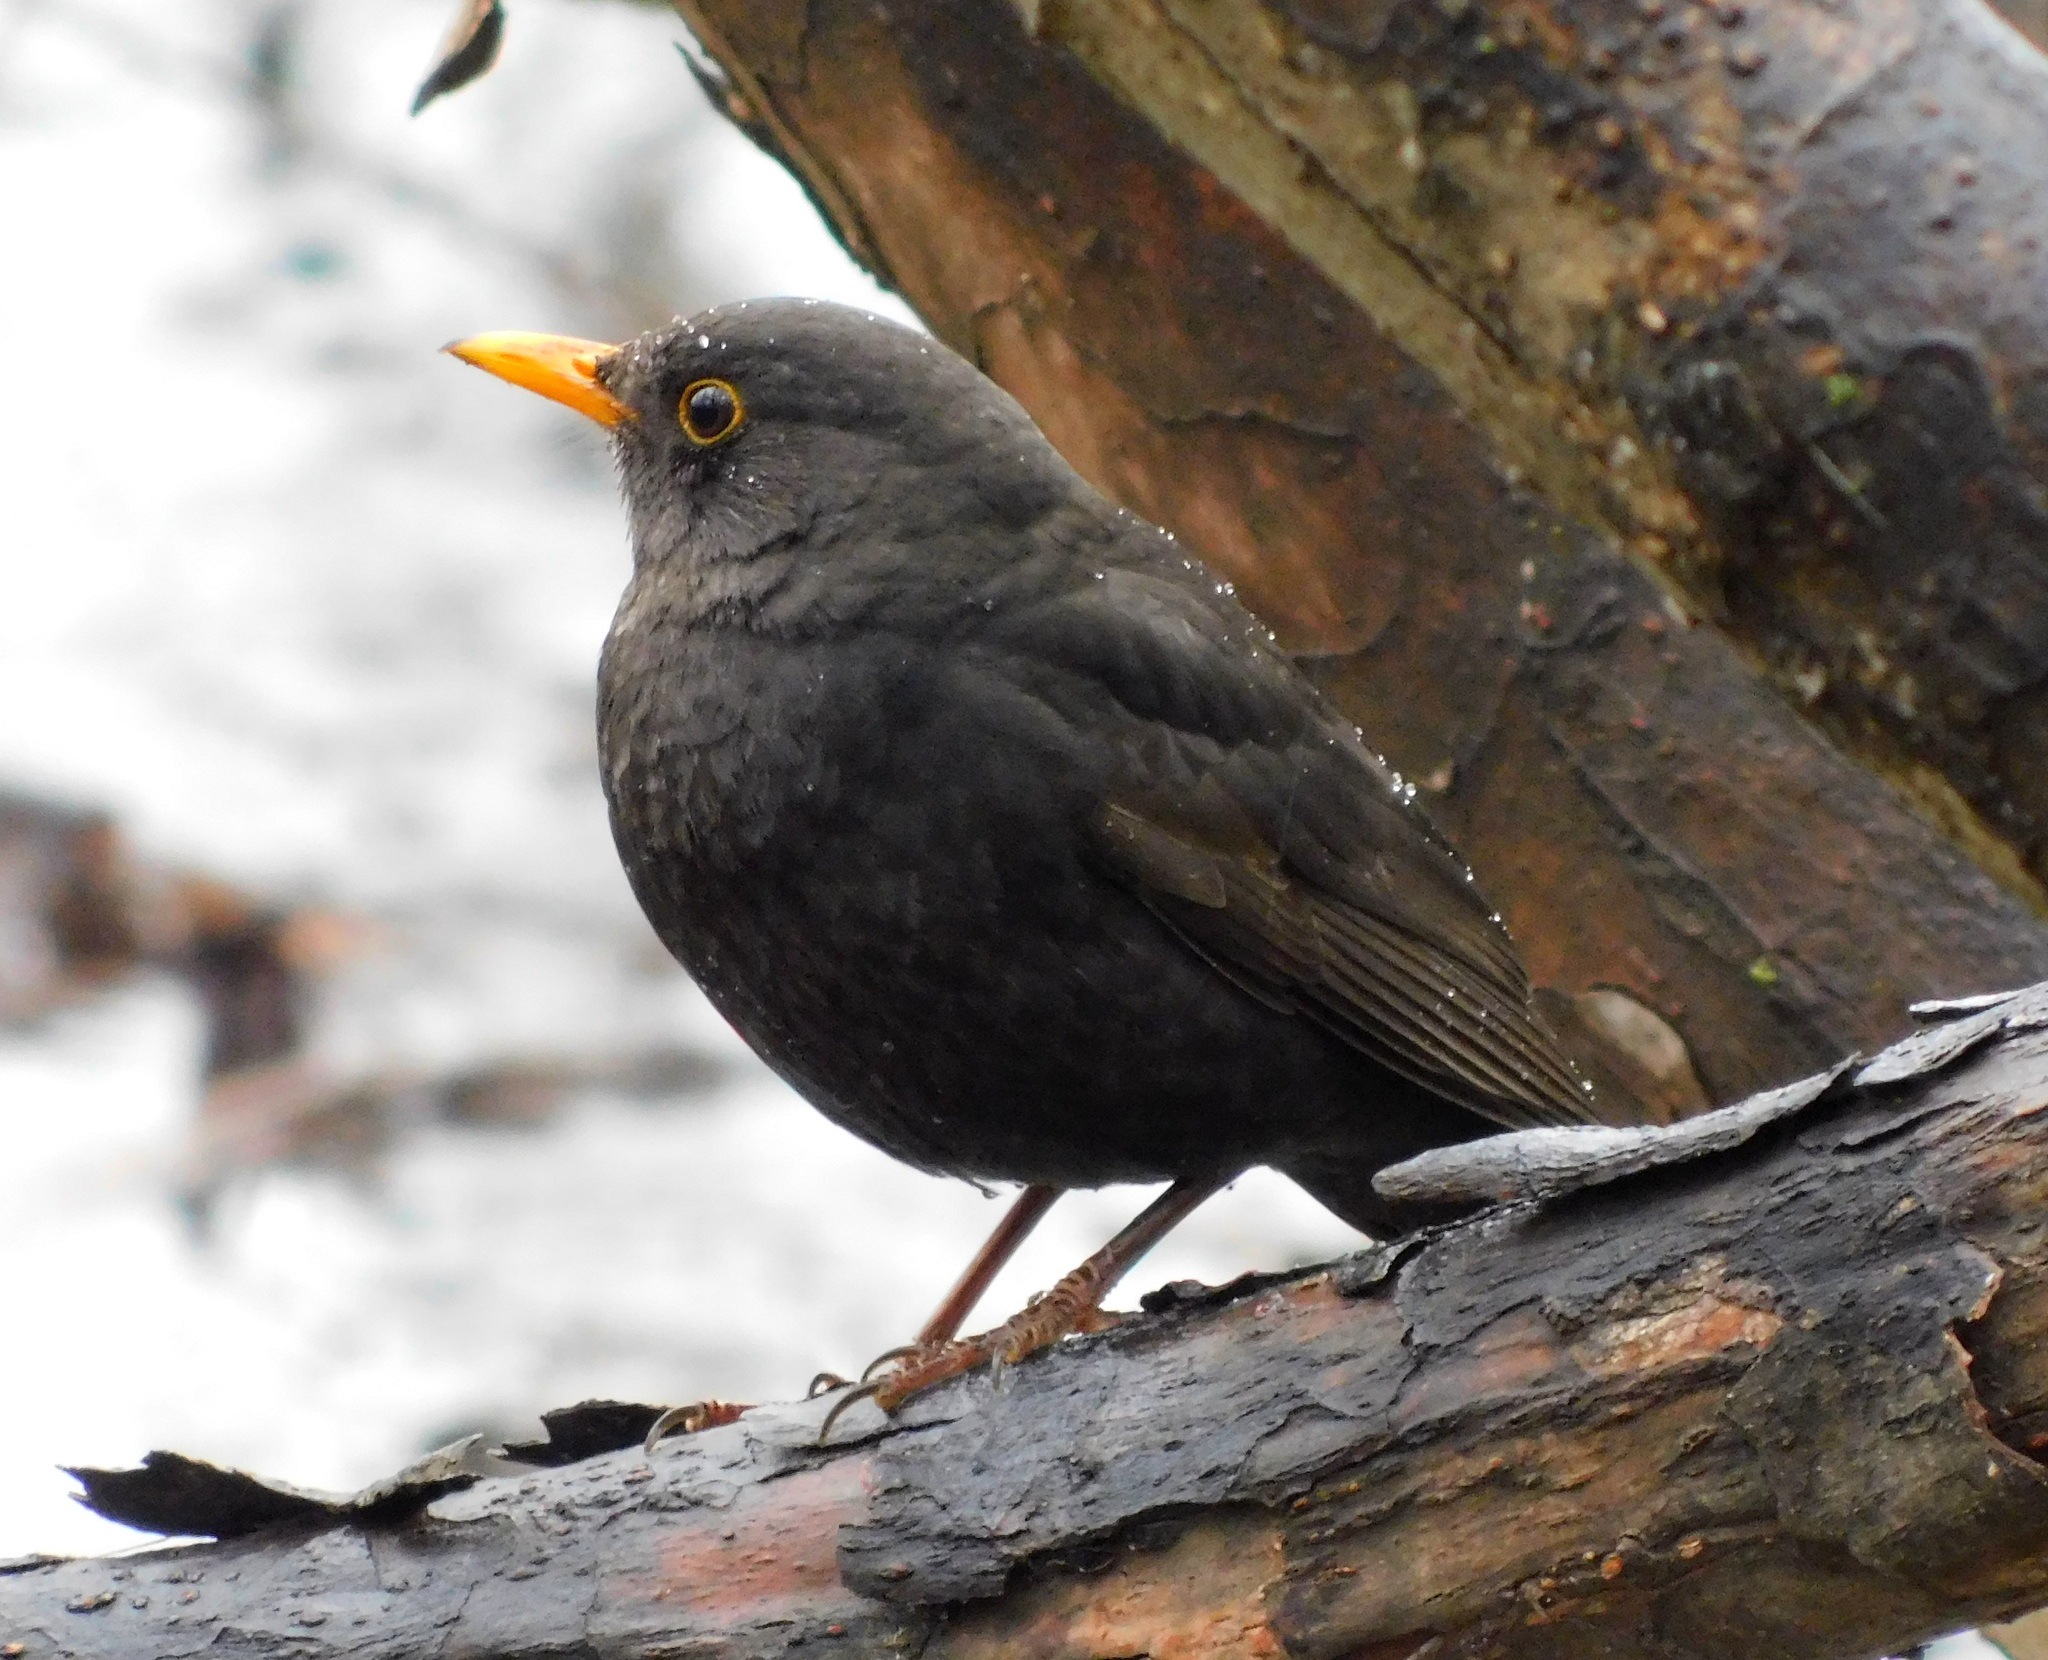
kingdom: Animalia
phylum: Chordata
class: Aves
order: Passeriformes
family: Turdidae
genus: Turdus
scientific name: Turdus merula
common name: Common blackbird
